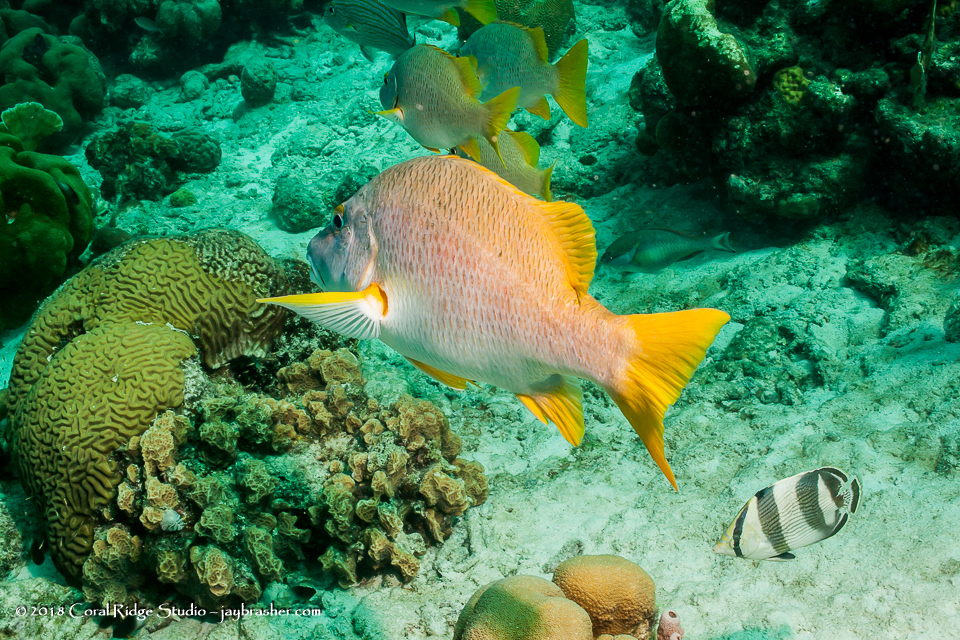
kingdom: Animalia
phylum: Chordata
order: Perciformes
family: Lutjanidae
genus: Lutjanus
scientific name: Lutjanus apodus
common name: Schoolmaster
